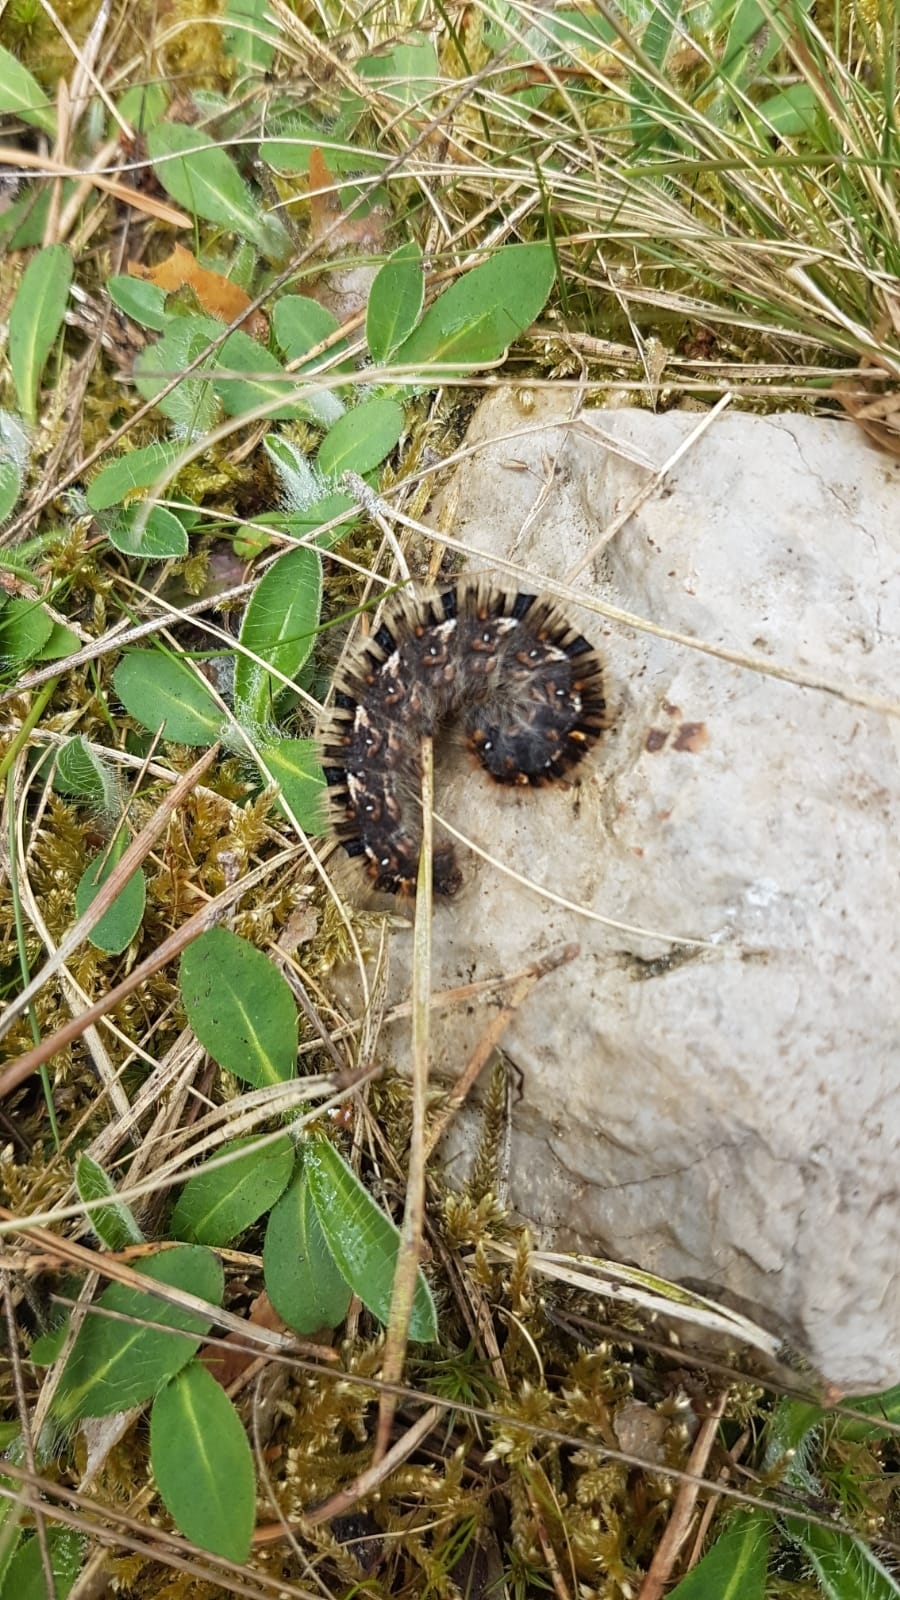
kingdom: Animalia
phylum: Arthropoda
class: Insecta
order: Lepidoptera
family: Lasiocampidae
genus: Lasiocampa
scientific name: Lasiocampa quercus
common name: Oak eggar
